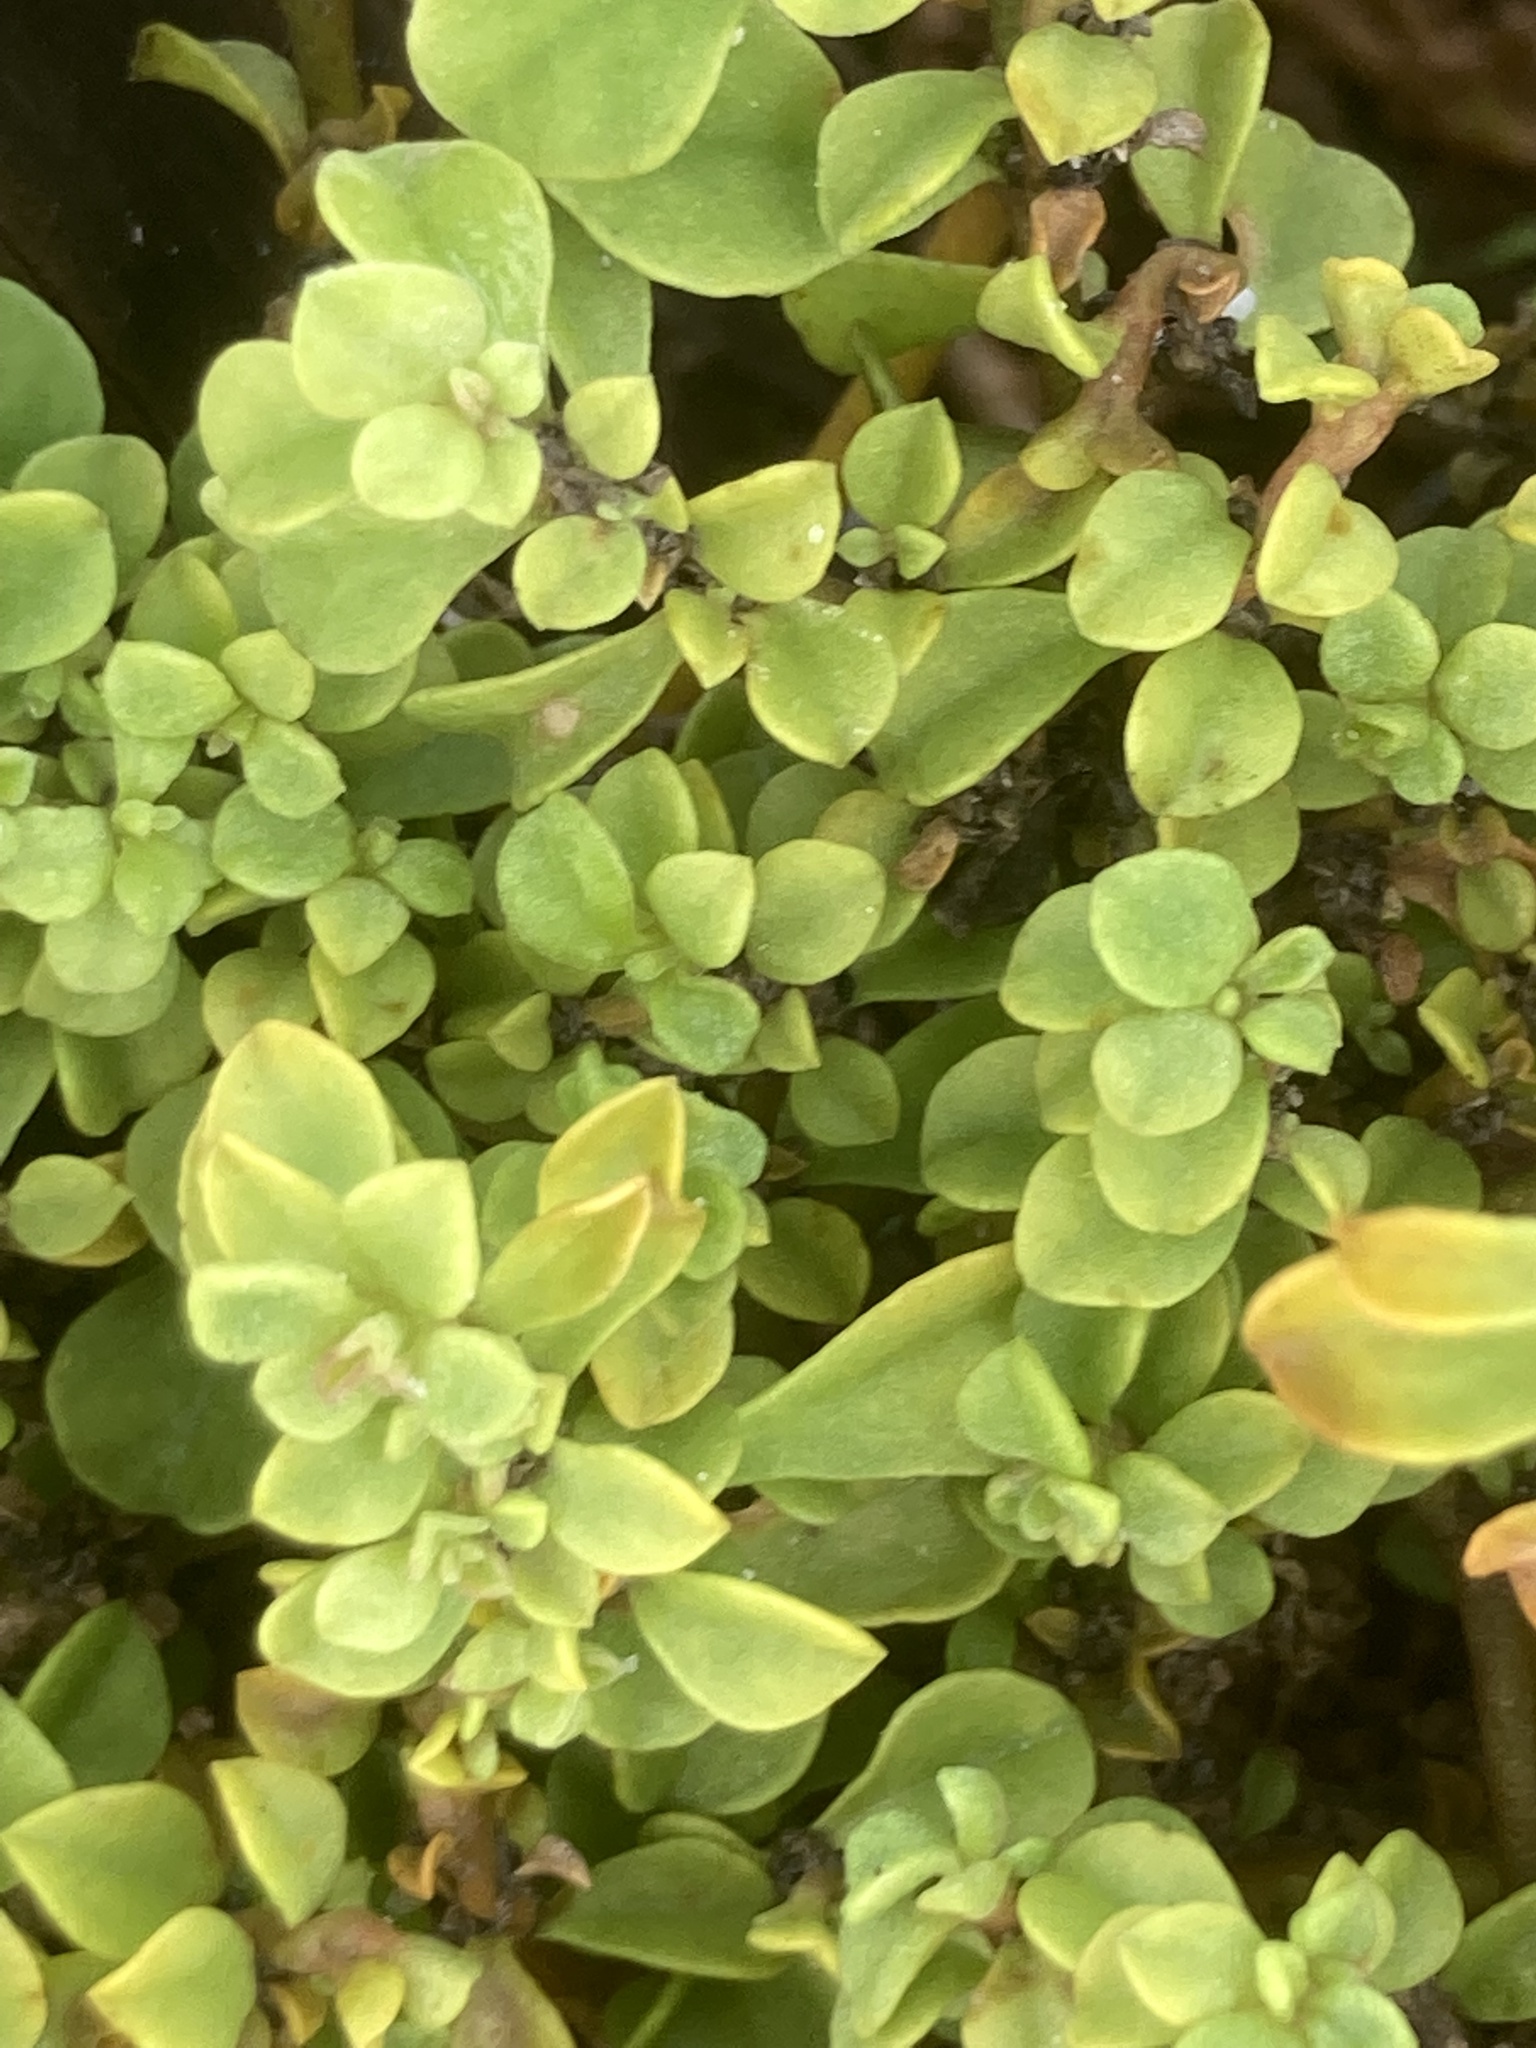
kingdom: Plantae
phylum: Tracheophyta
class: Magnoliopsida
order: Caryophyllales
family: Aizoaceae
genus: Mesembryanthemum
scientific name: Mesembryanthemum cordifolium
